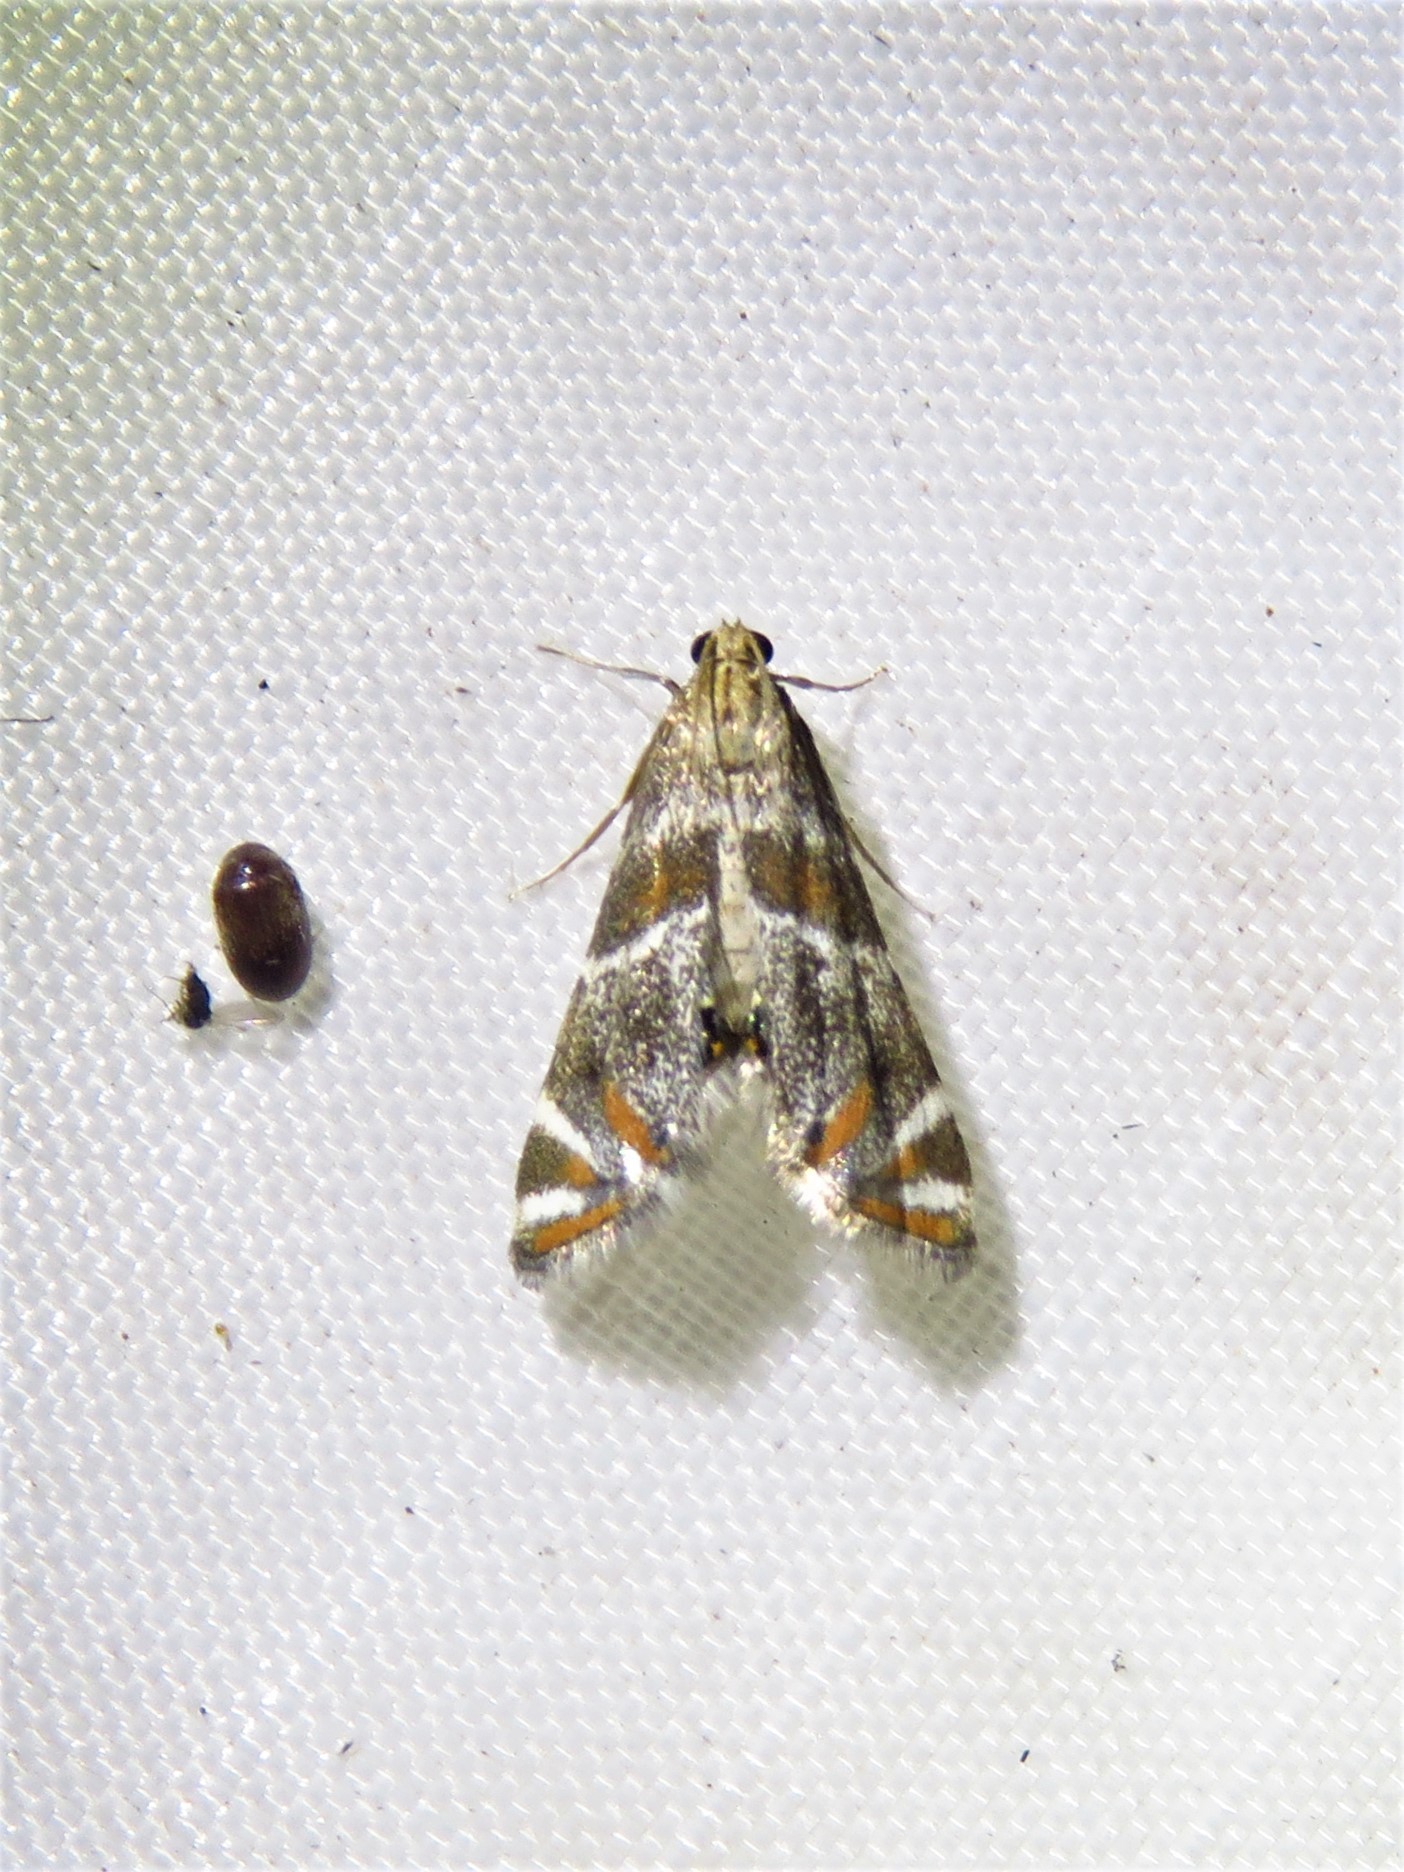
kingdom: Animalia
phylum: Arthropoda
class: Insecta
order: Lepidoptera
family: Crambidae
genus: Petrophila
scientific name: Petrophila jaliscalis
